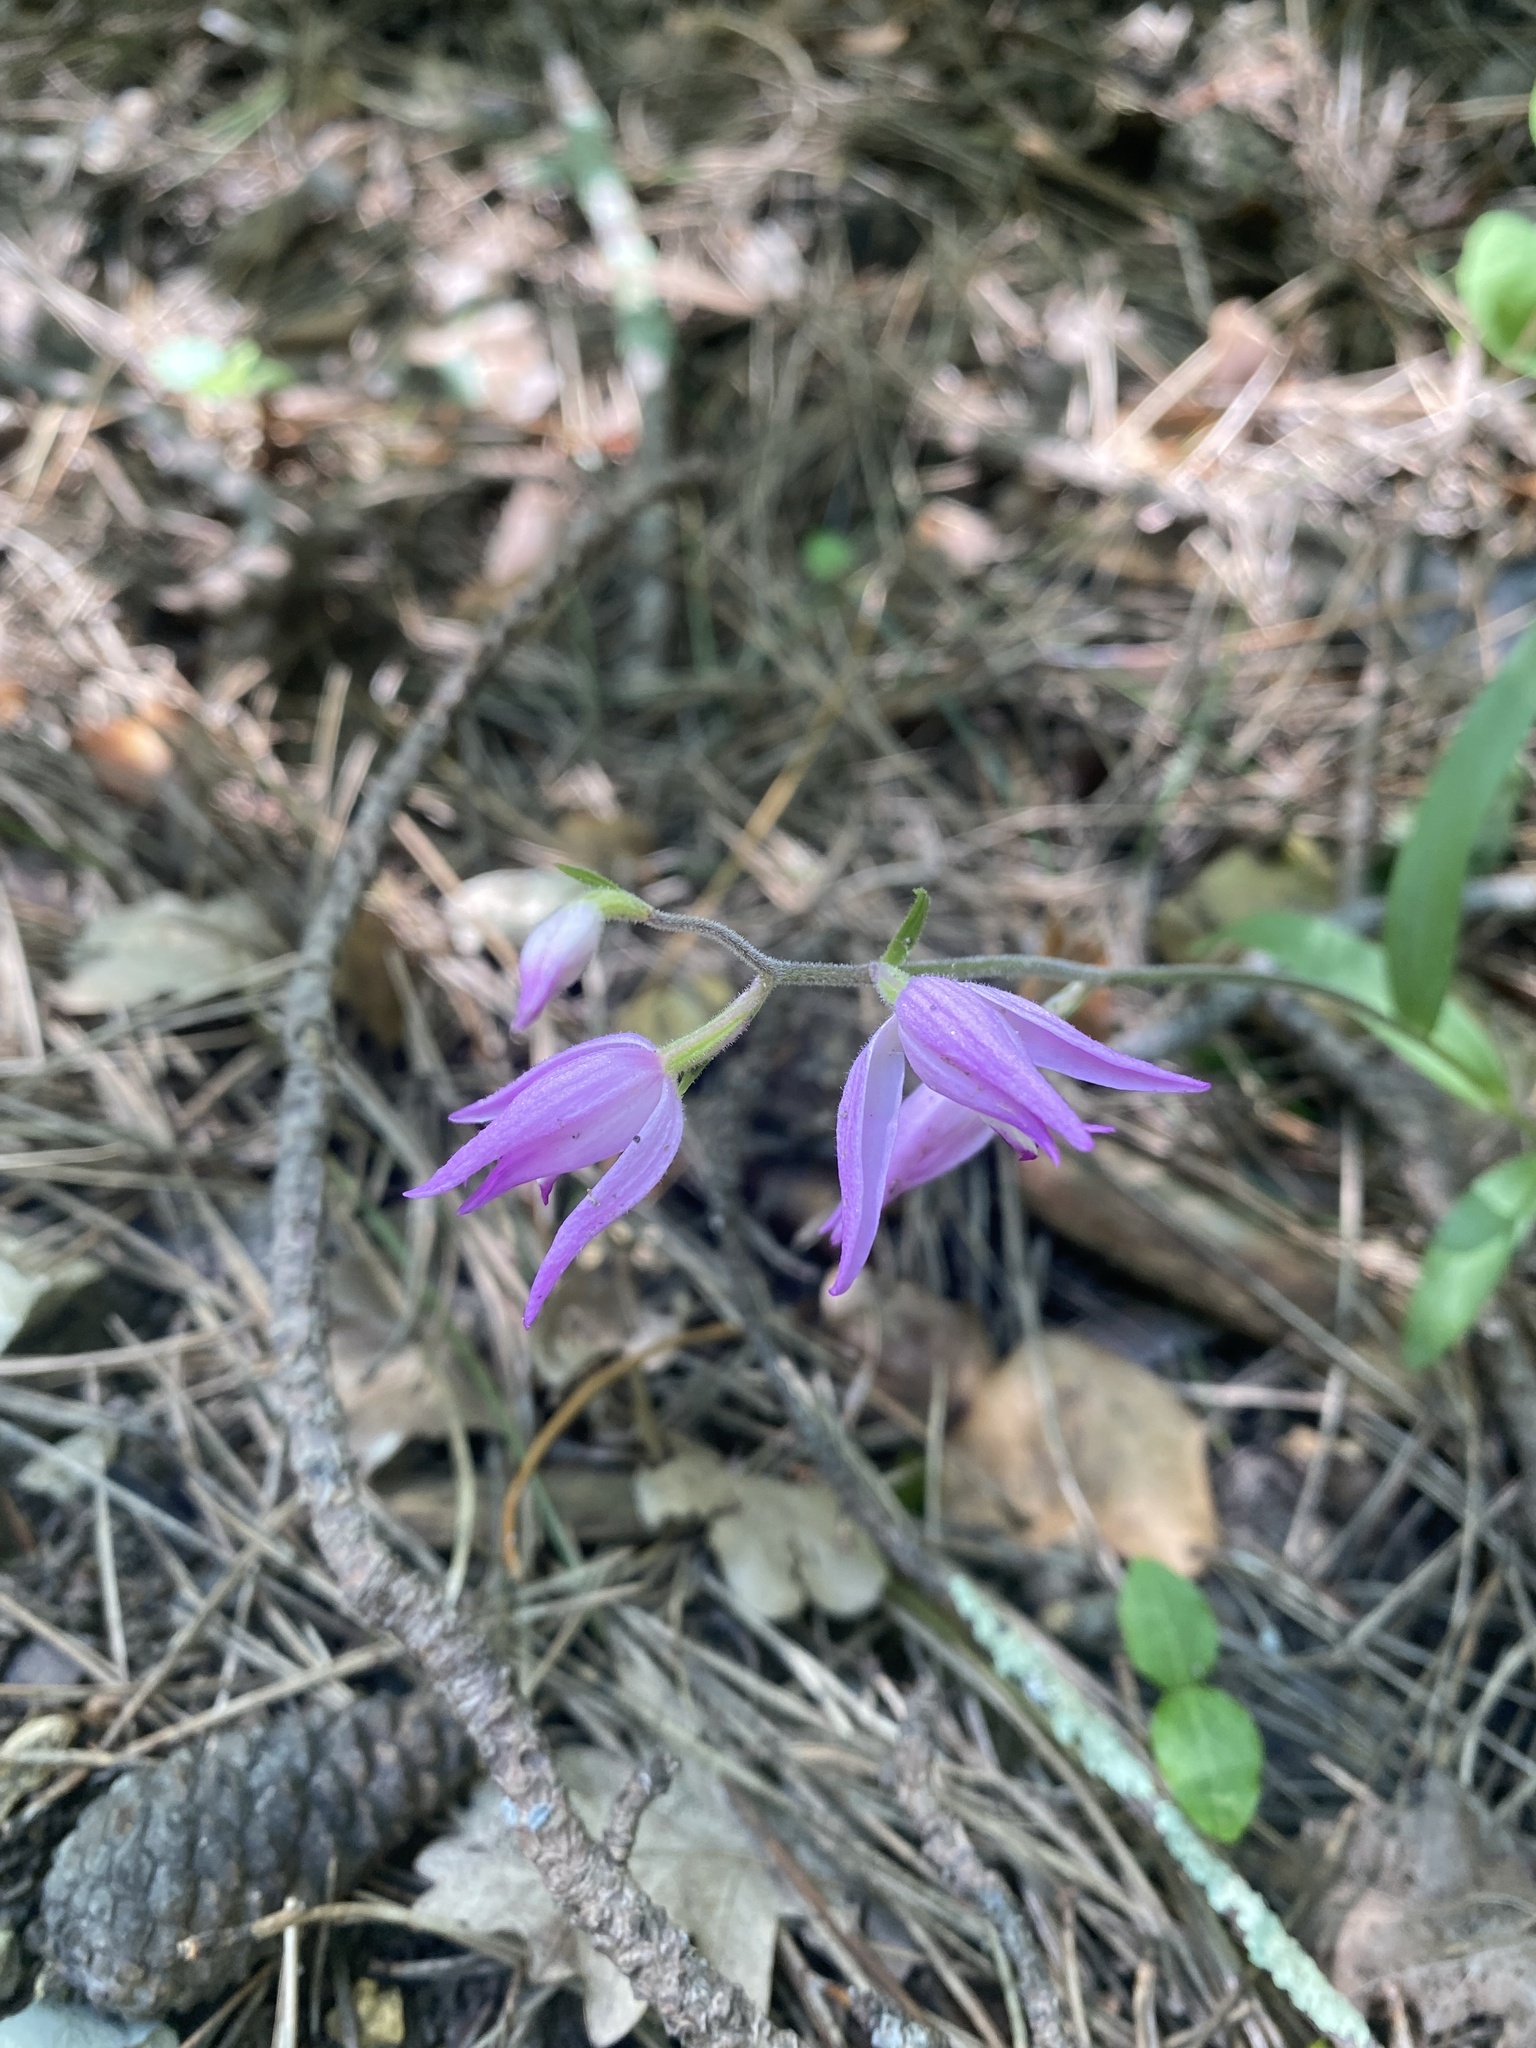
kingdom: Plantae
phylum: Tracheophyta
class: Liliopsida
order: Asparagales
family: Orchidaceae
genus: Cephalanthera
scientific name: Cephalanthera rubra
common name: Red helleborine
